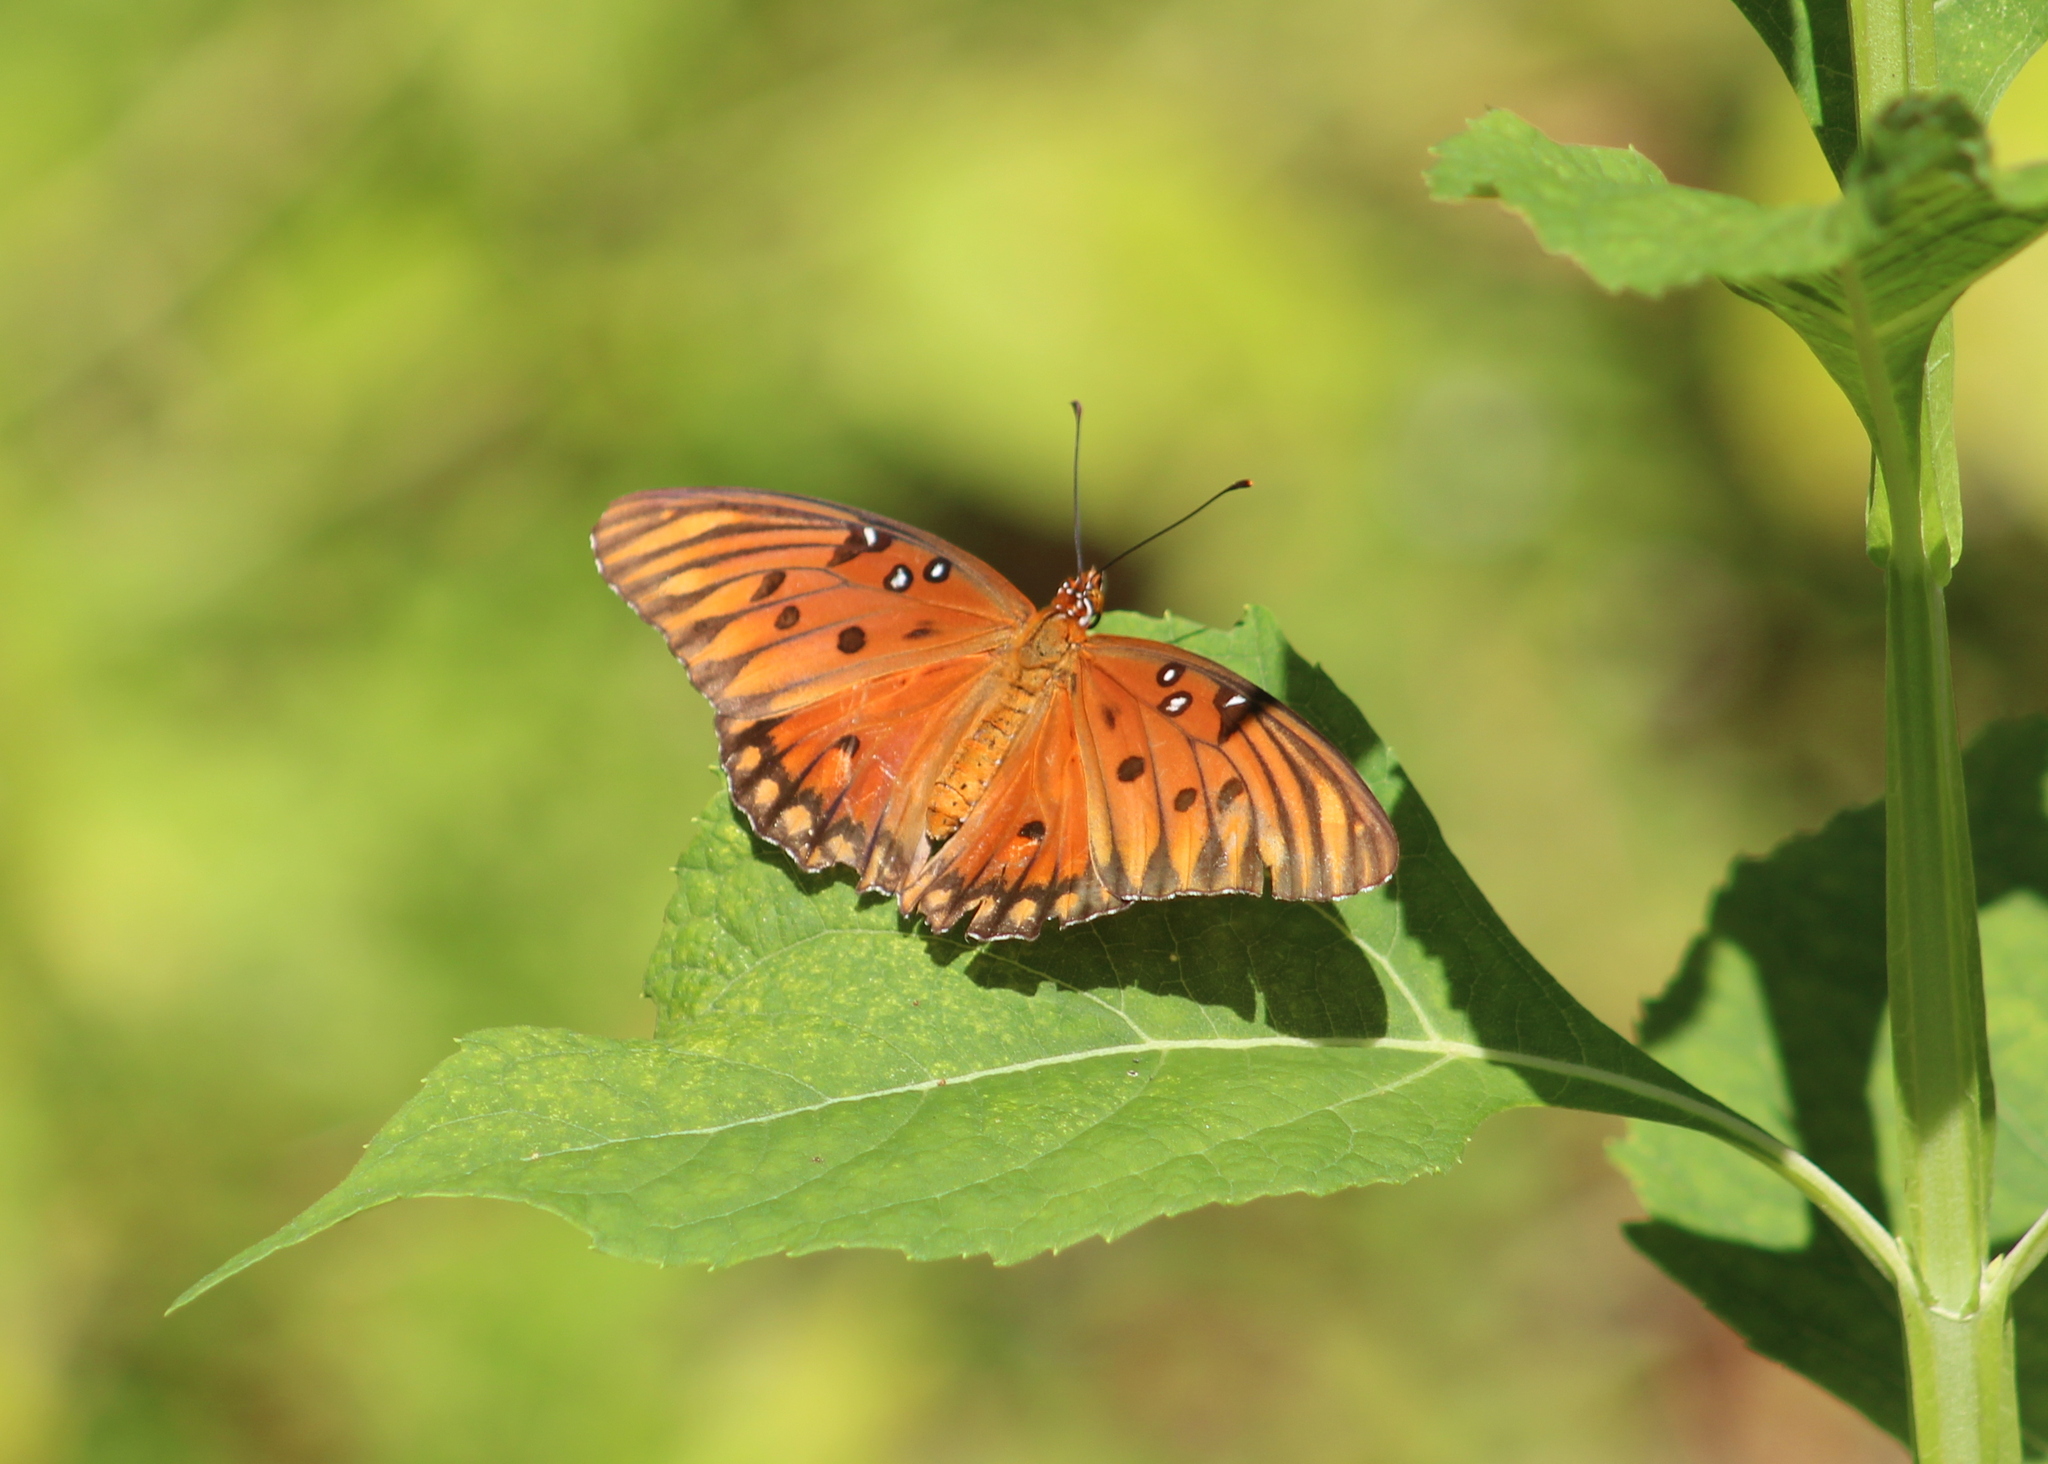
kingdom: Animalia
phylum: Arthropoda
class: Insecta
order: Lepidoptera
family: Nymphalidae
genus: Dione
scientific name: Dione vanillae
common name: Gulf fritillary
